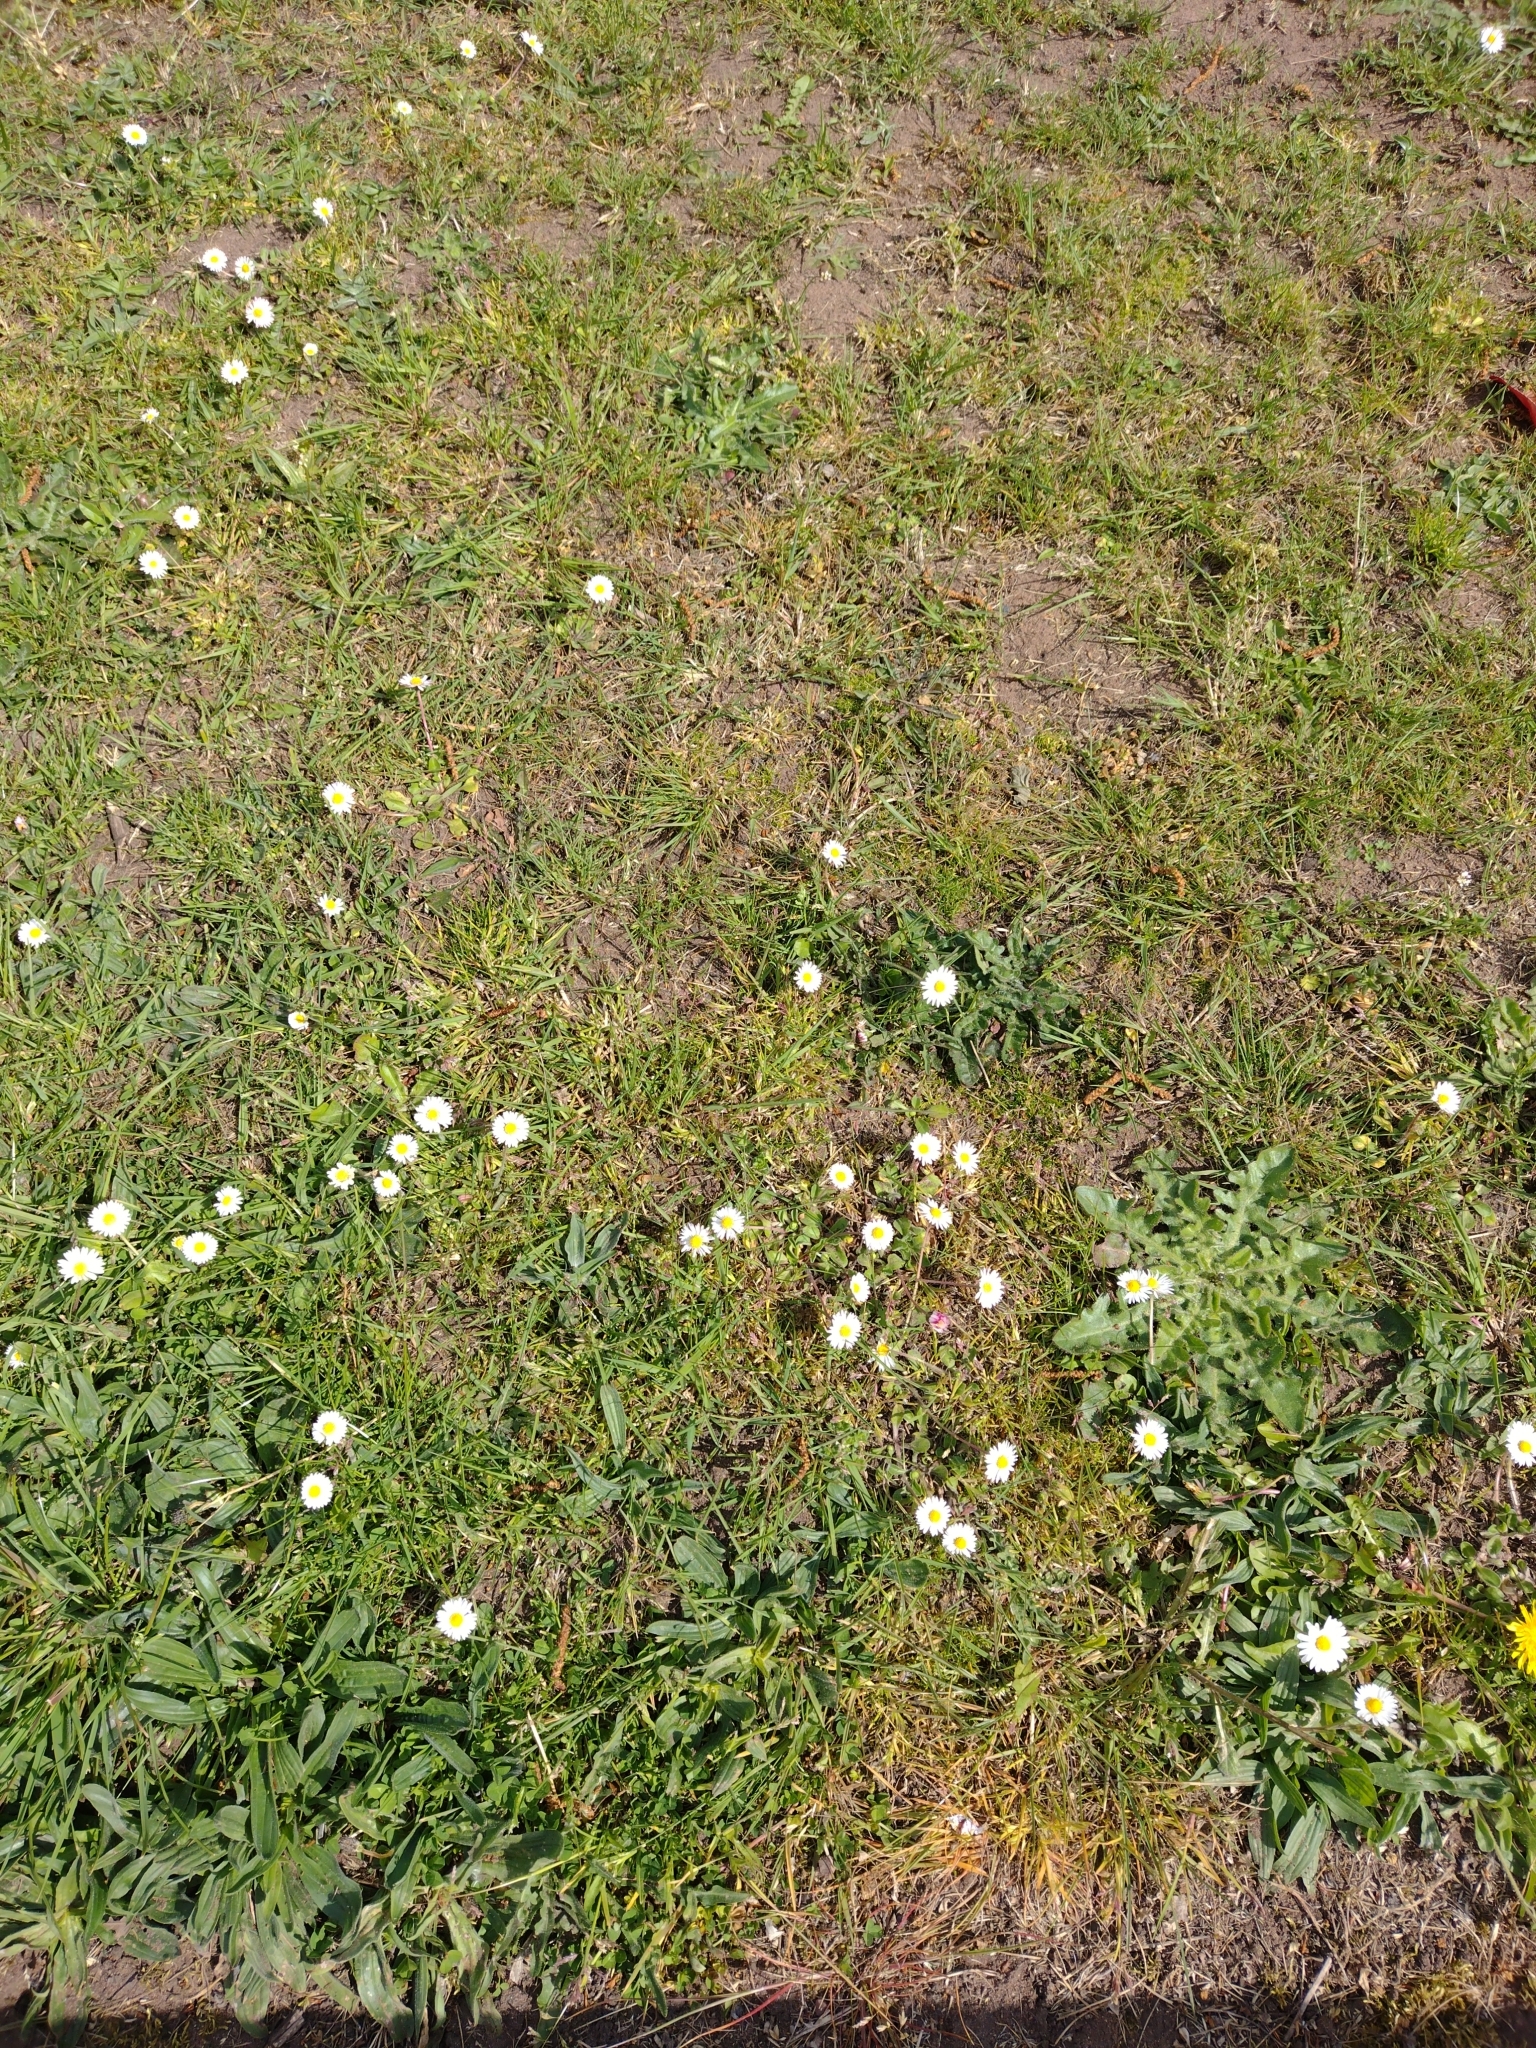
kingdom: Plantae
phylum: Tracheophyta
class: Magnoliopsida
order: Asterales
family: Asteraceae
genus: Bellis
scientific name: Bellis perennis
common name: Lawndaisy
